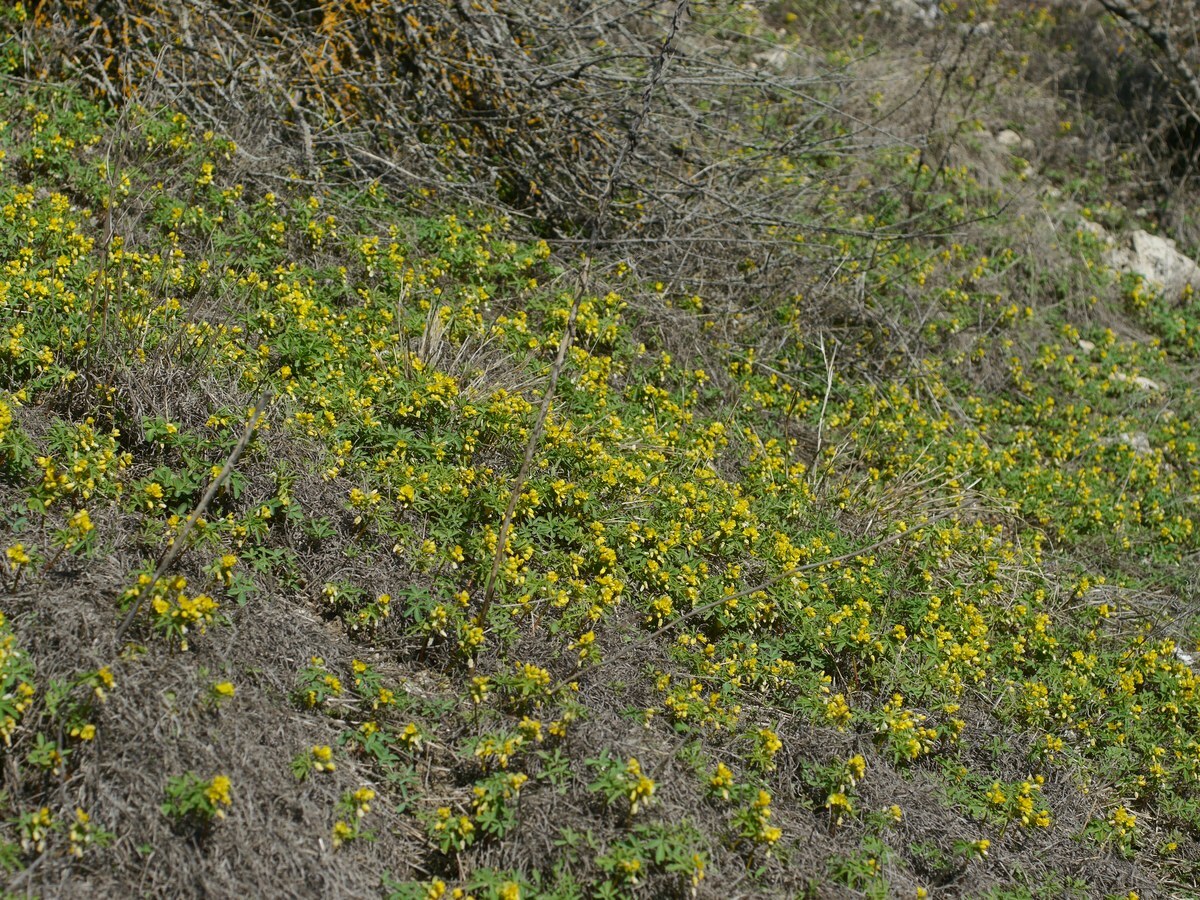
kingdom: Plantae
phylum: Tracheophyta
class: Magnoliopsida
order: Ranunculales
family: Berberidaceae
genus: Gymnospermium
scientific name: Gymnospermium odessanum
